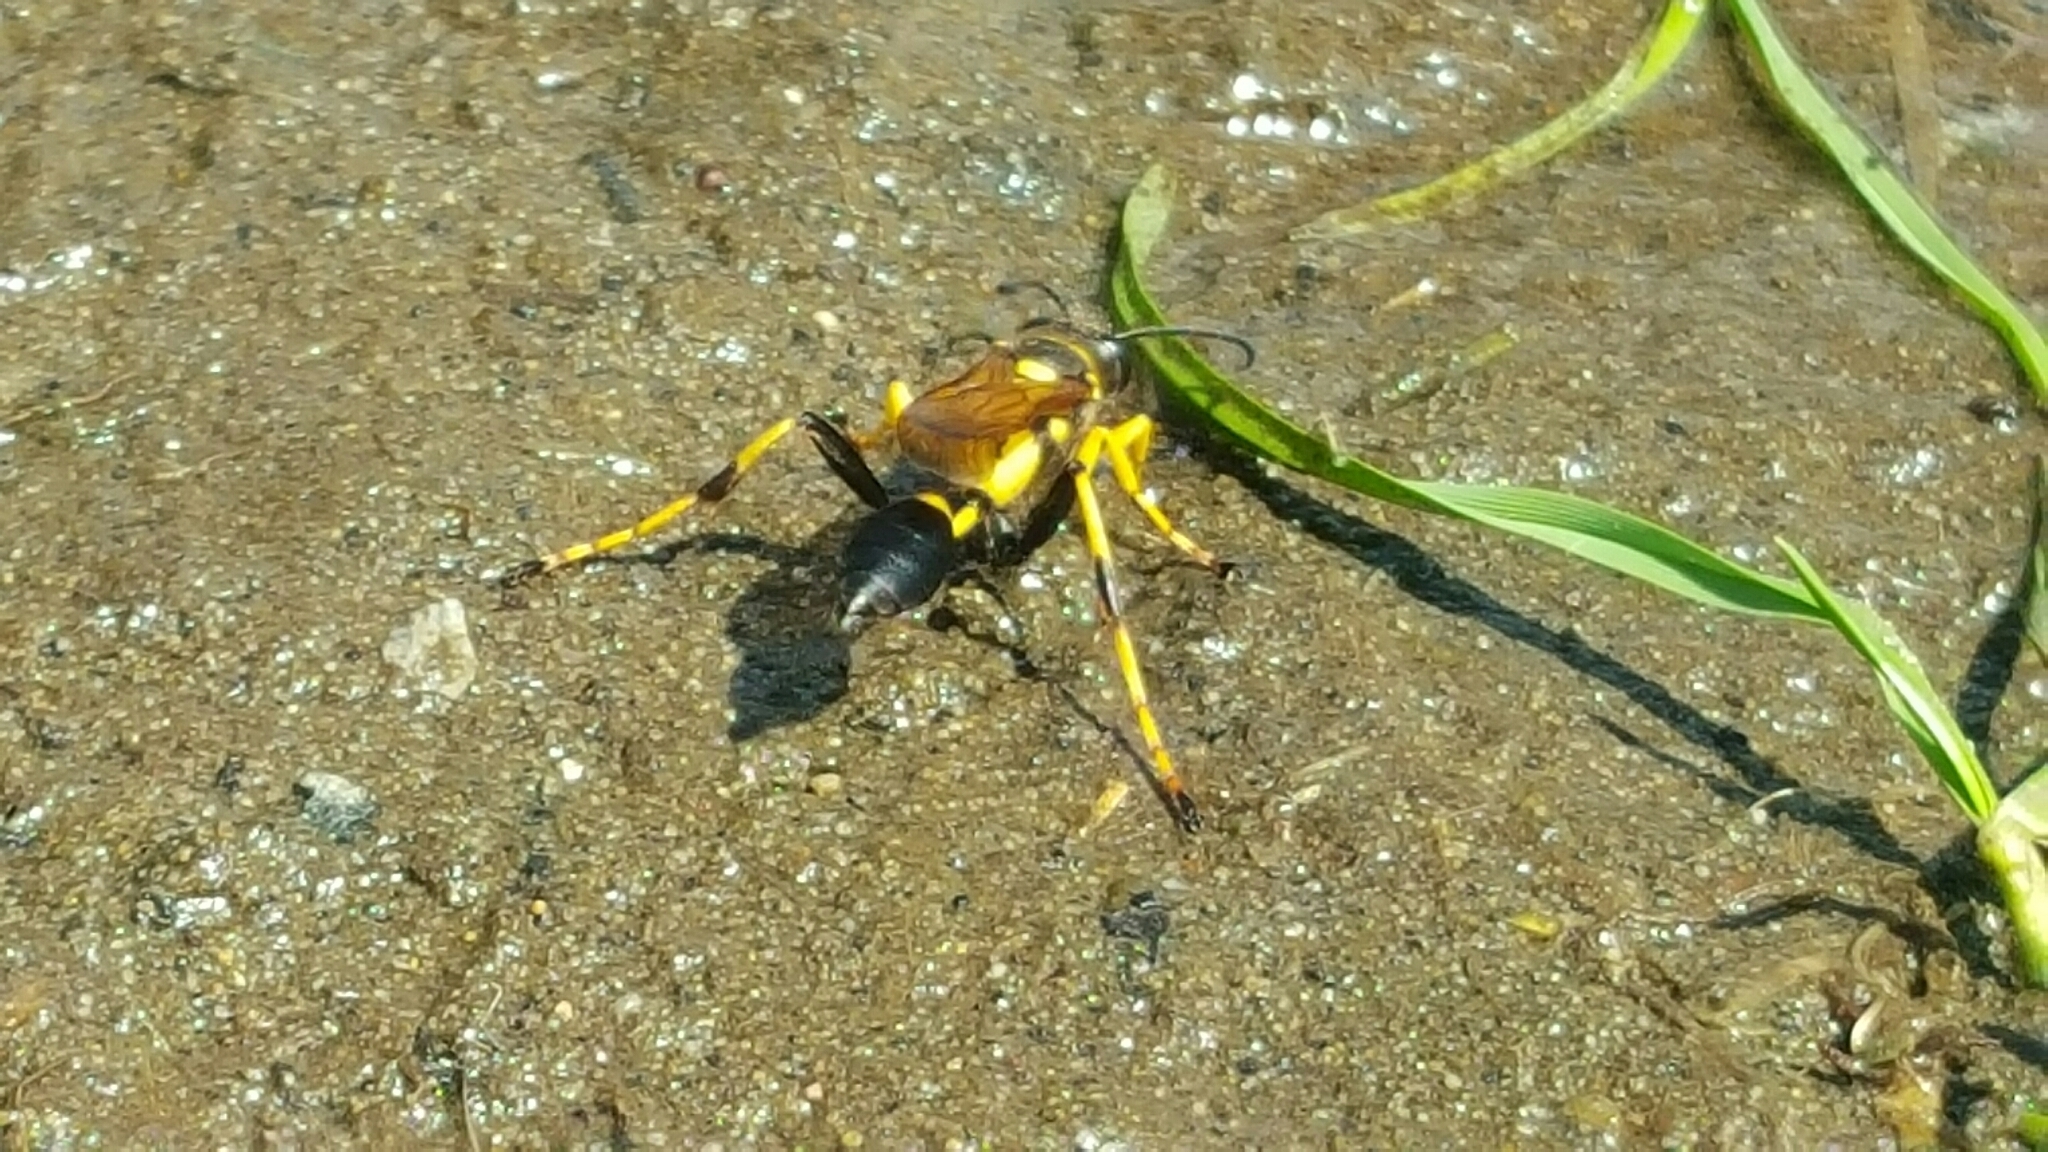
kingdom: Animalia
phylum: Arthropoda
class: Insecta
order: Hymenoptera
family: Sphecidae
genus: Sceliphron
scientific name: Sceliphron caementarium
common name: Mud dauber
